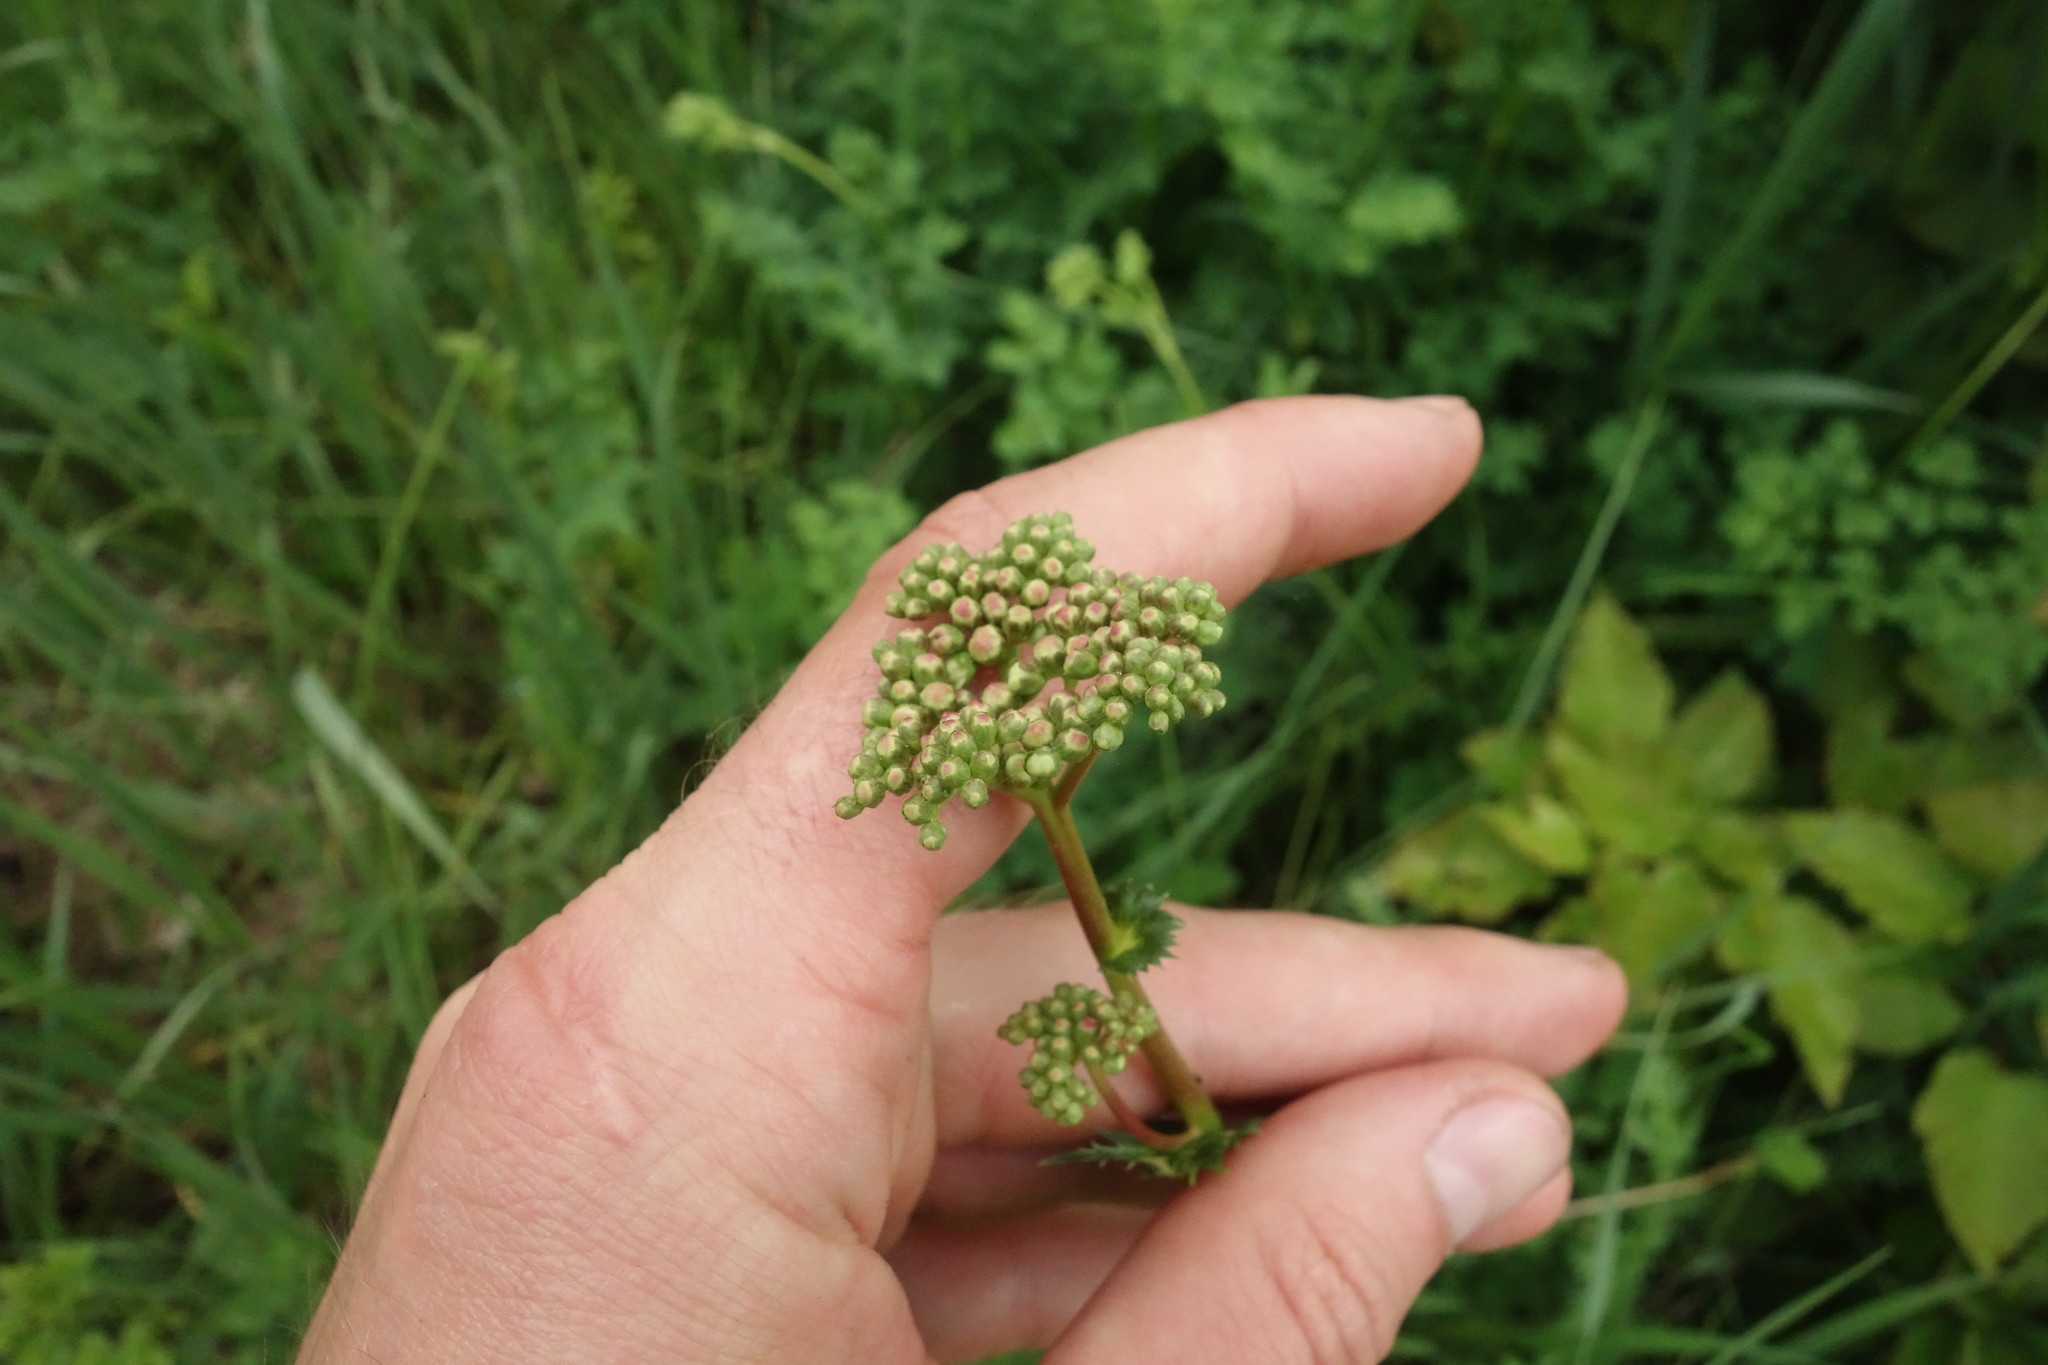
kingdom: Plantae
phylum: Tracheophyta
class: Magnoliopsida
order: Rosales
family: Rosaceae
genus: Filipendula
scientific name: Filipendula vulgaris
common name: Dropwort
